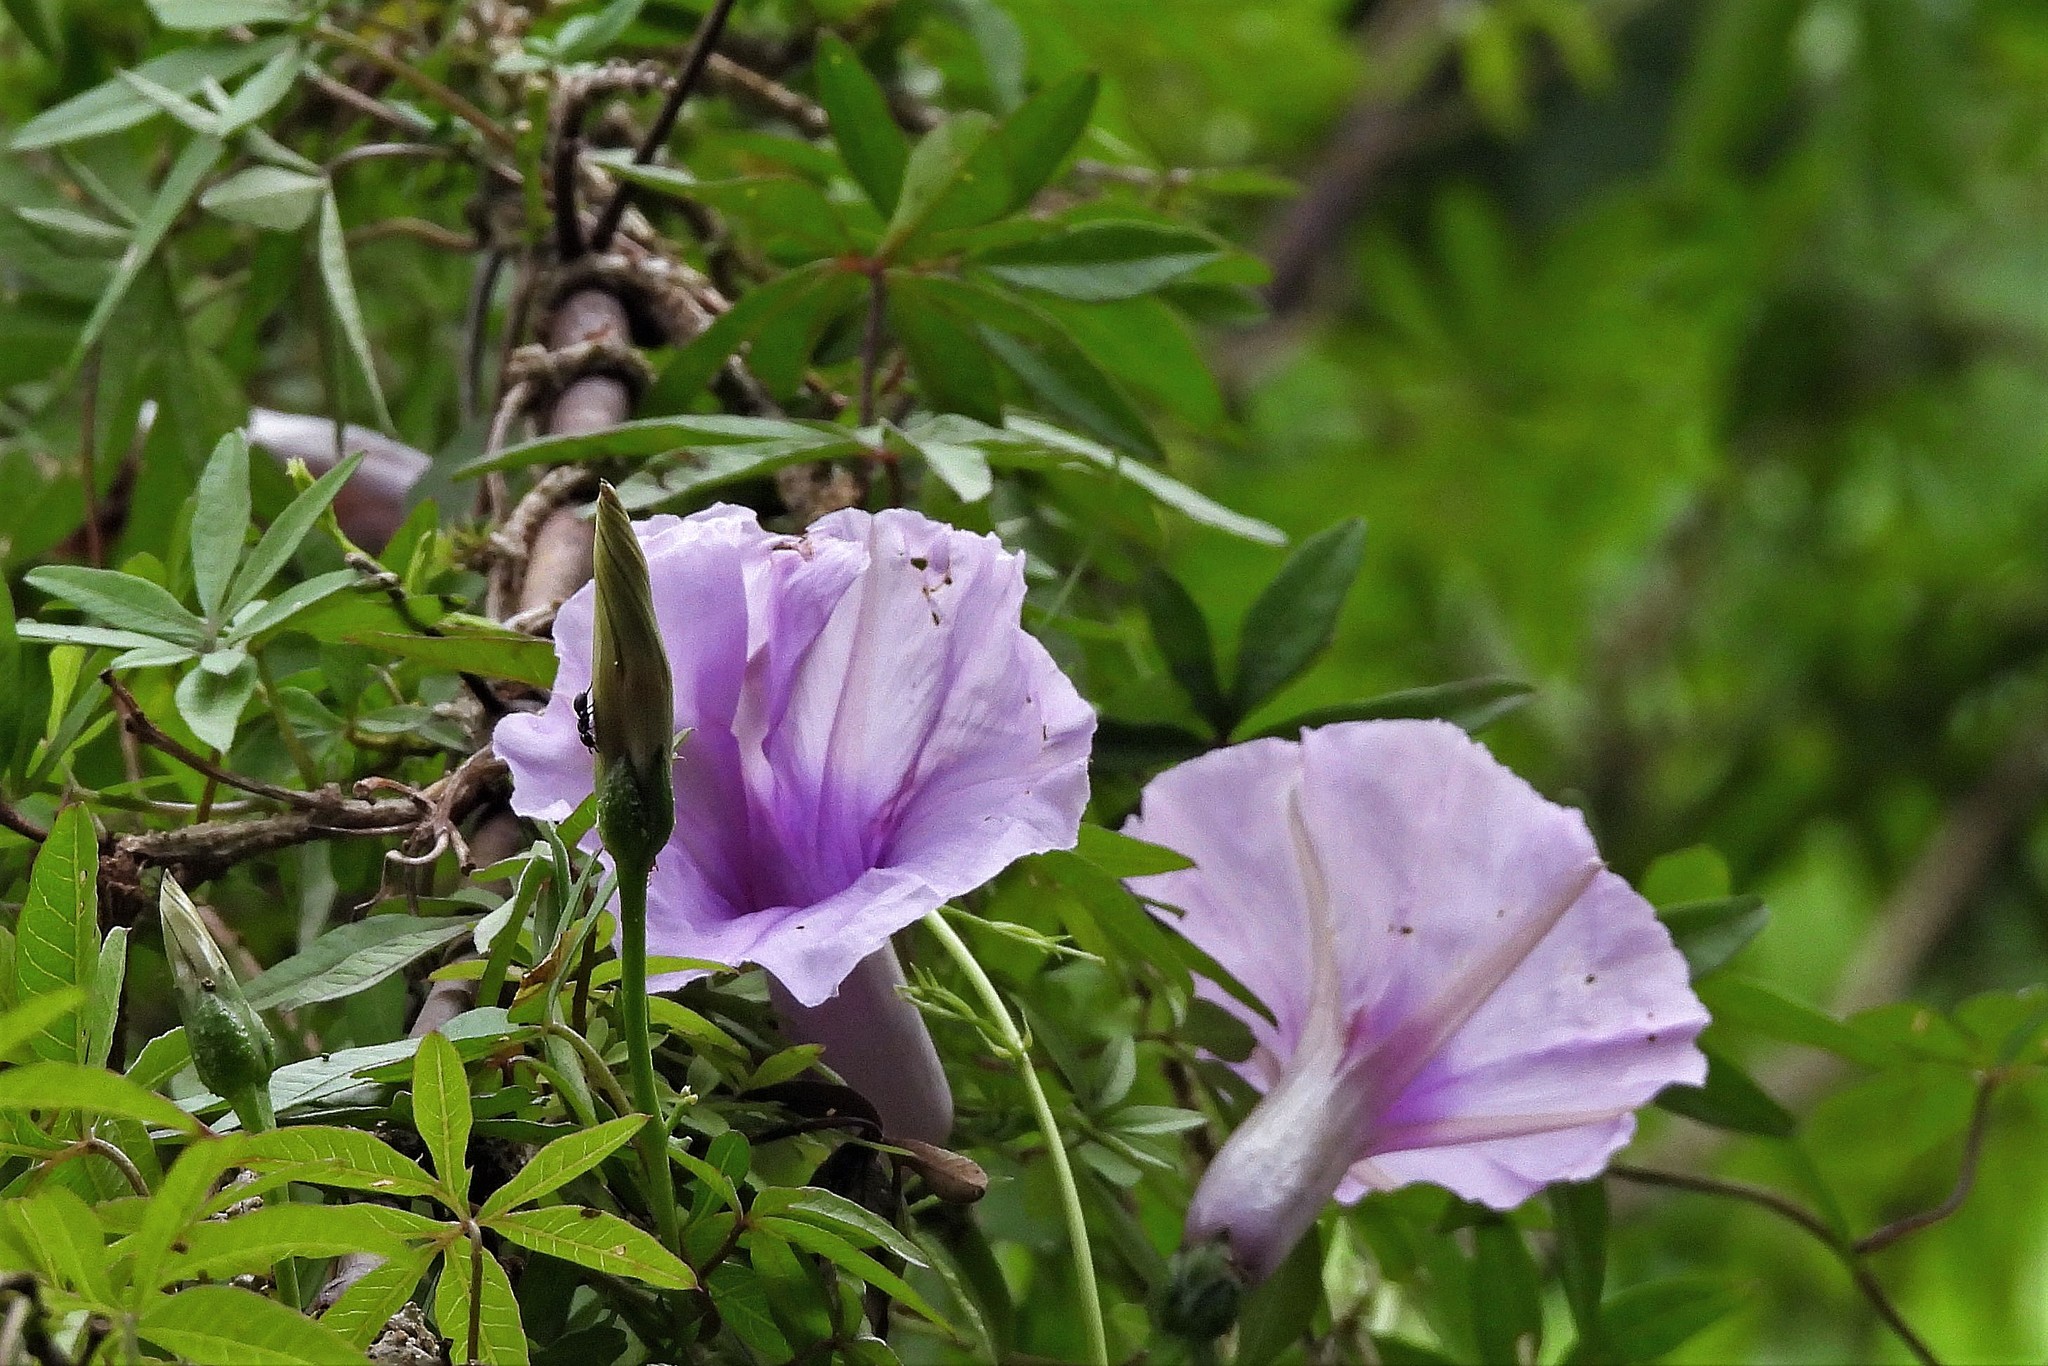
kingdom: Plantae
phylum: Tracheophyta
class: Magnoliopsida
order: Solanales
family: Convolvulaceae
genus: Ipomoea
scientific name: Ipomoea cairica
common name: Mile a minute vine
